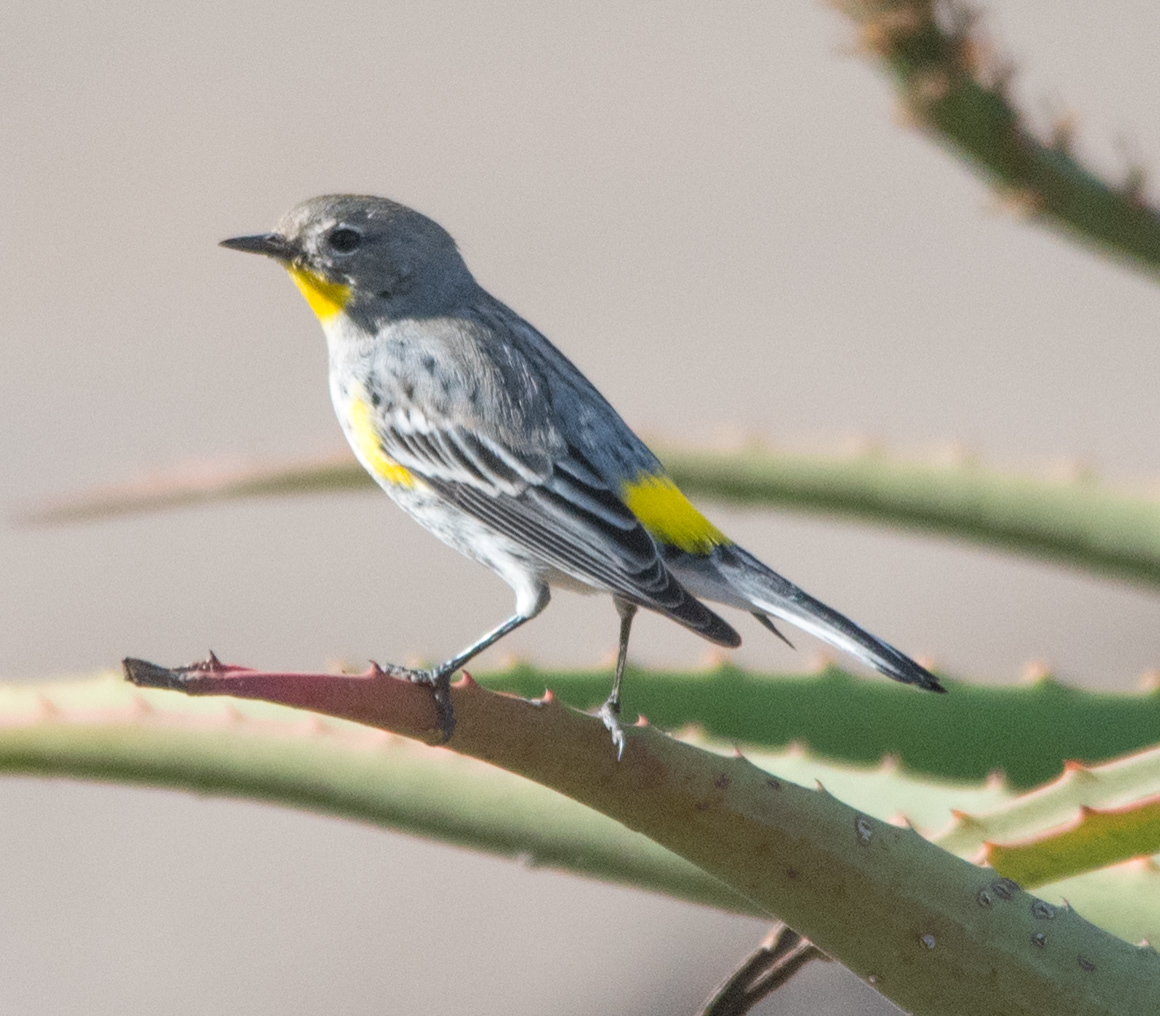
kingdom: Animalia
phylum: Chordata
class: Aves
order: Passeriformes
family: Parulidae
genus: Setophaga
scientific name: Setophaga coronata
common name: Myrtle warbler
